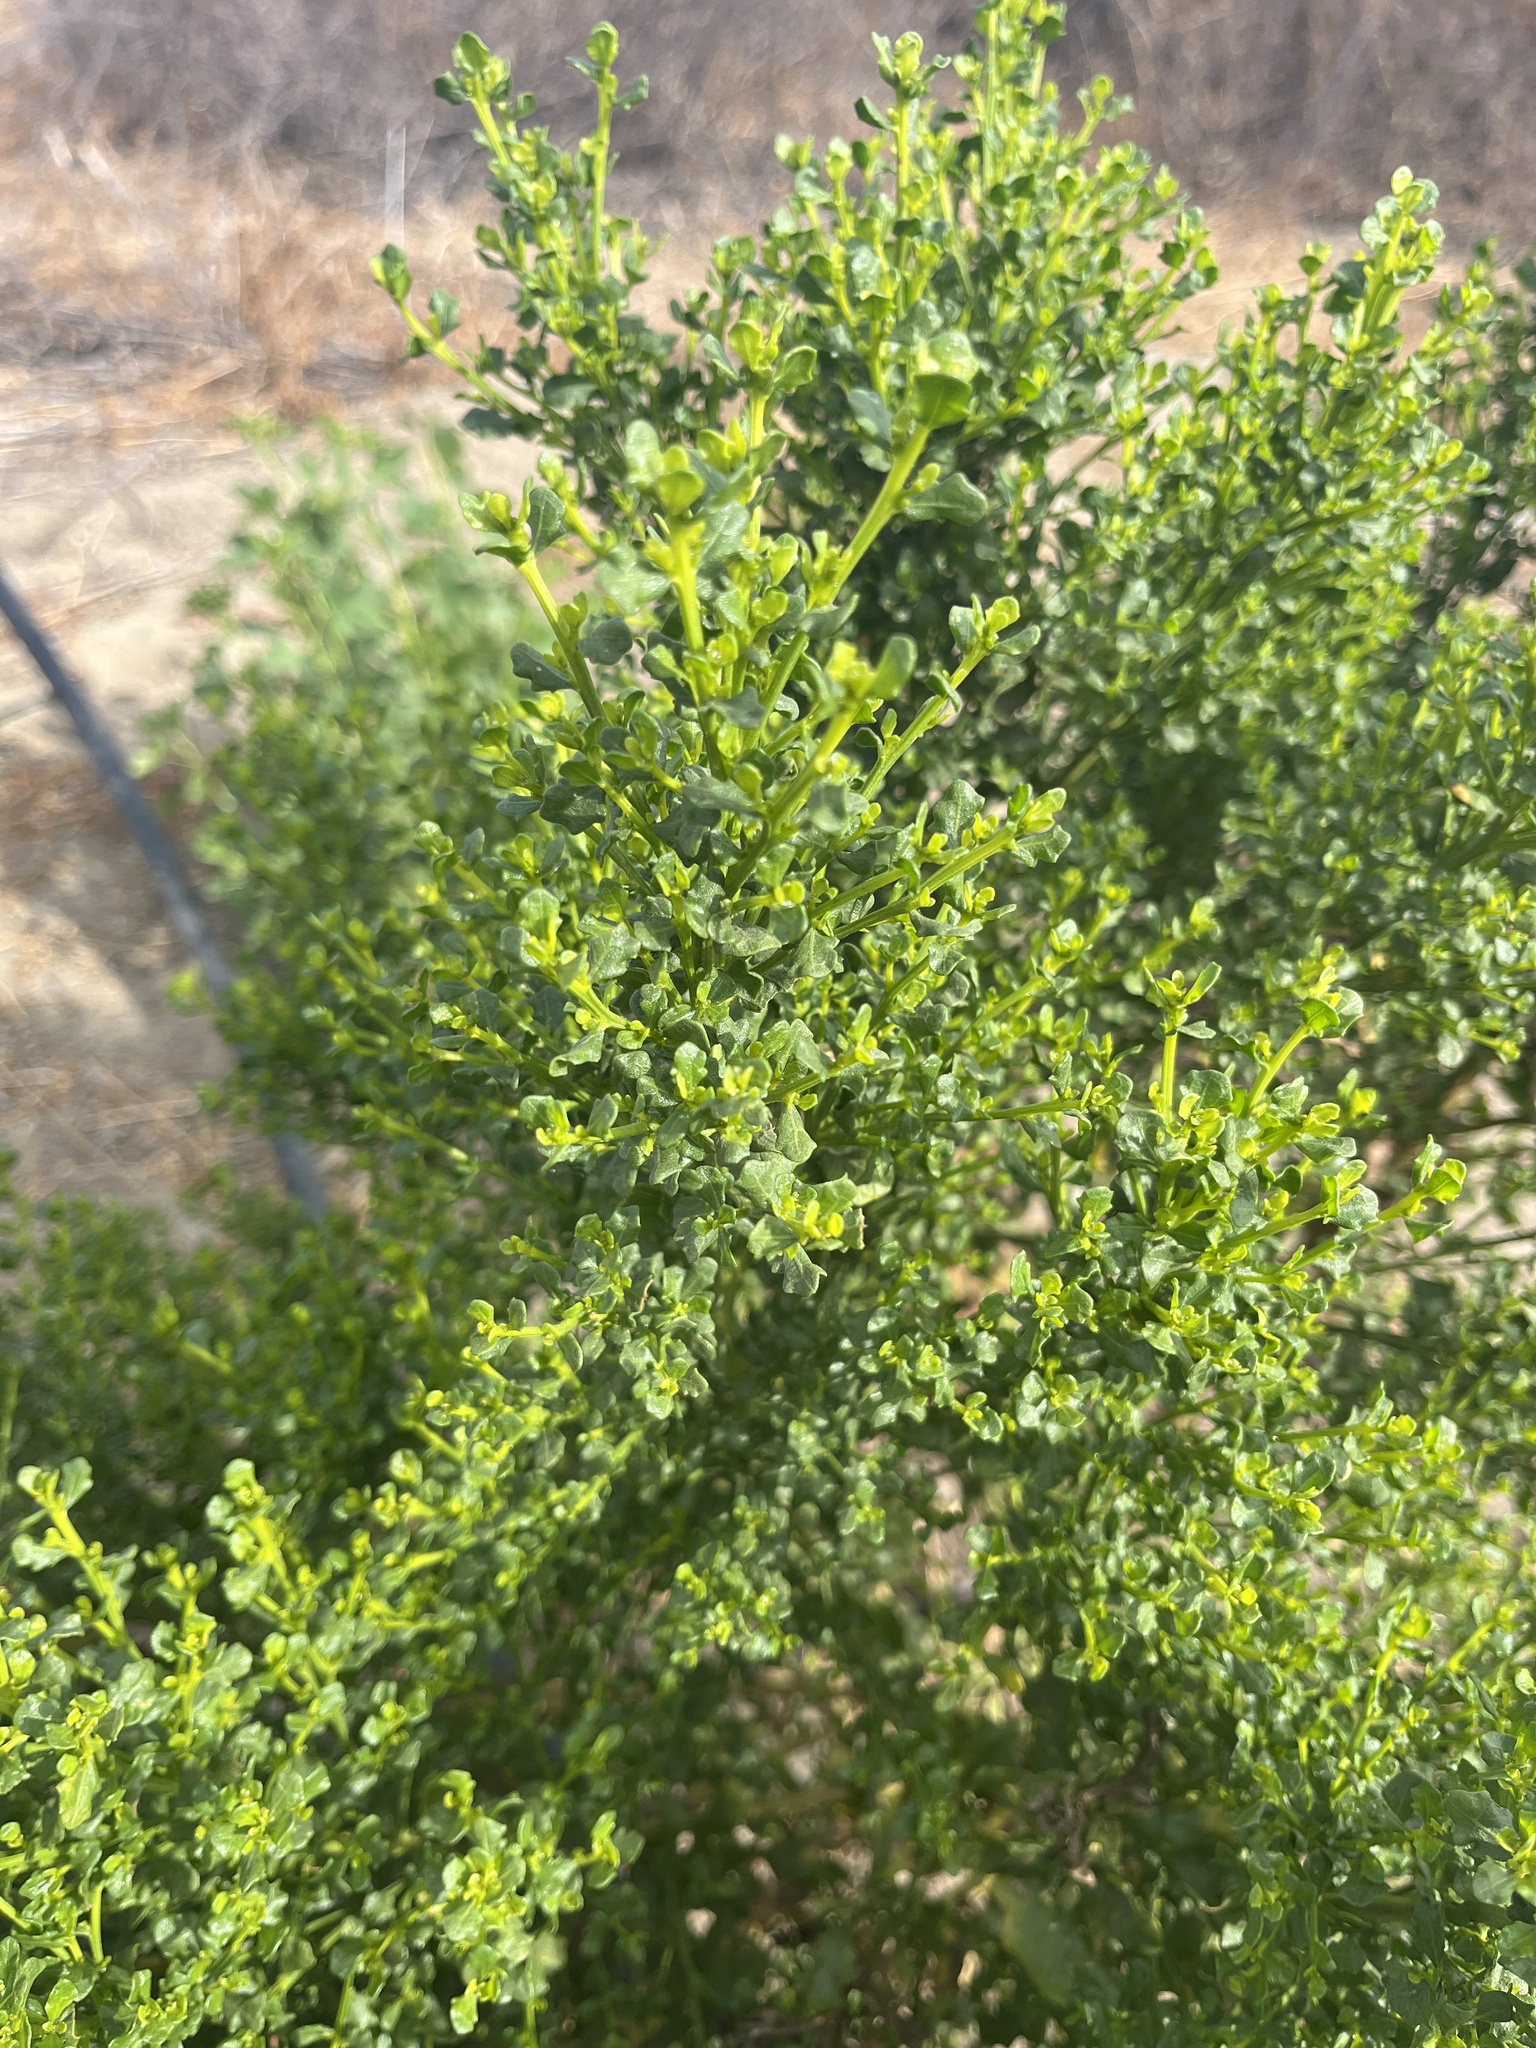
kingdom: Plantae
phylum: Tracheophyta
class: Magnoliopsida
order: Asterales
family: Asteraceae
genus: Baccharis
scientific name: Baccharis pilularis
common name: Coyotebrush
